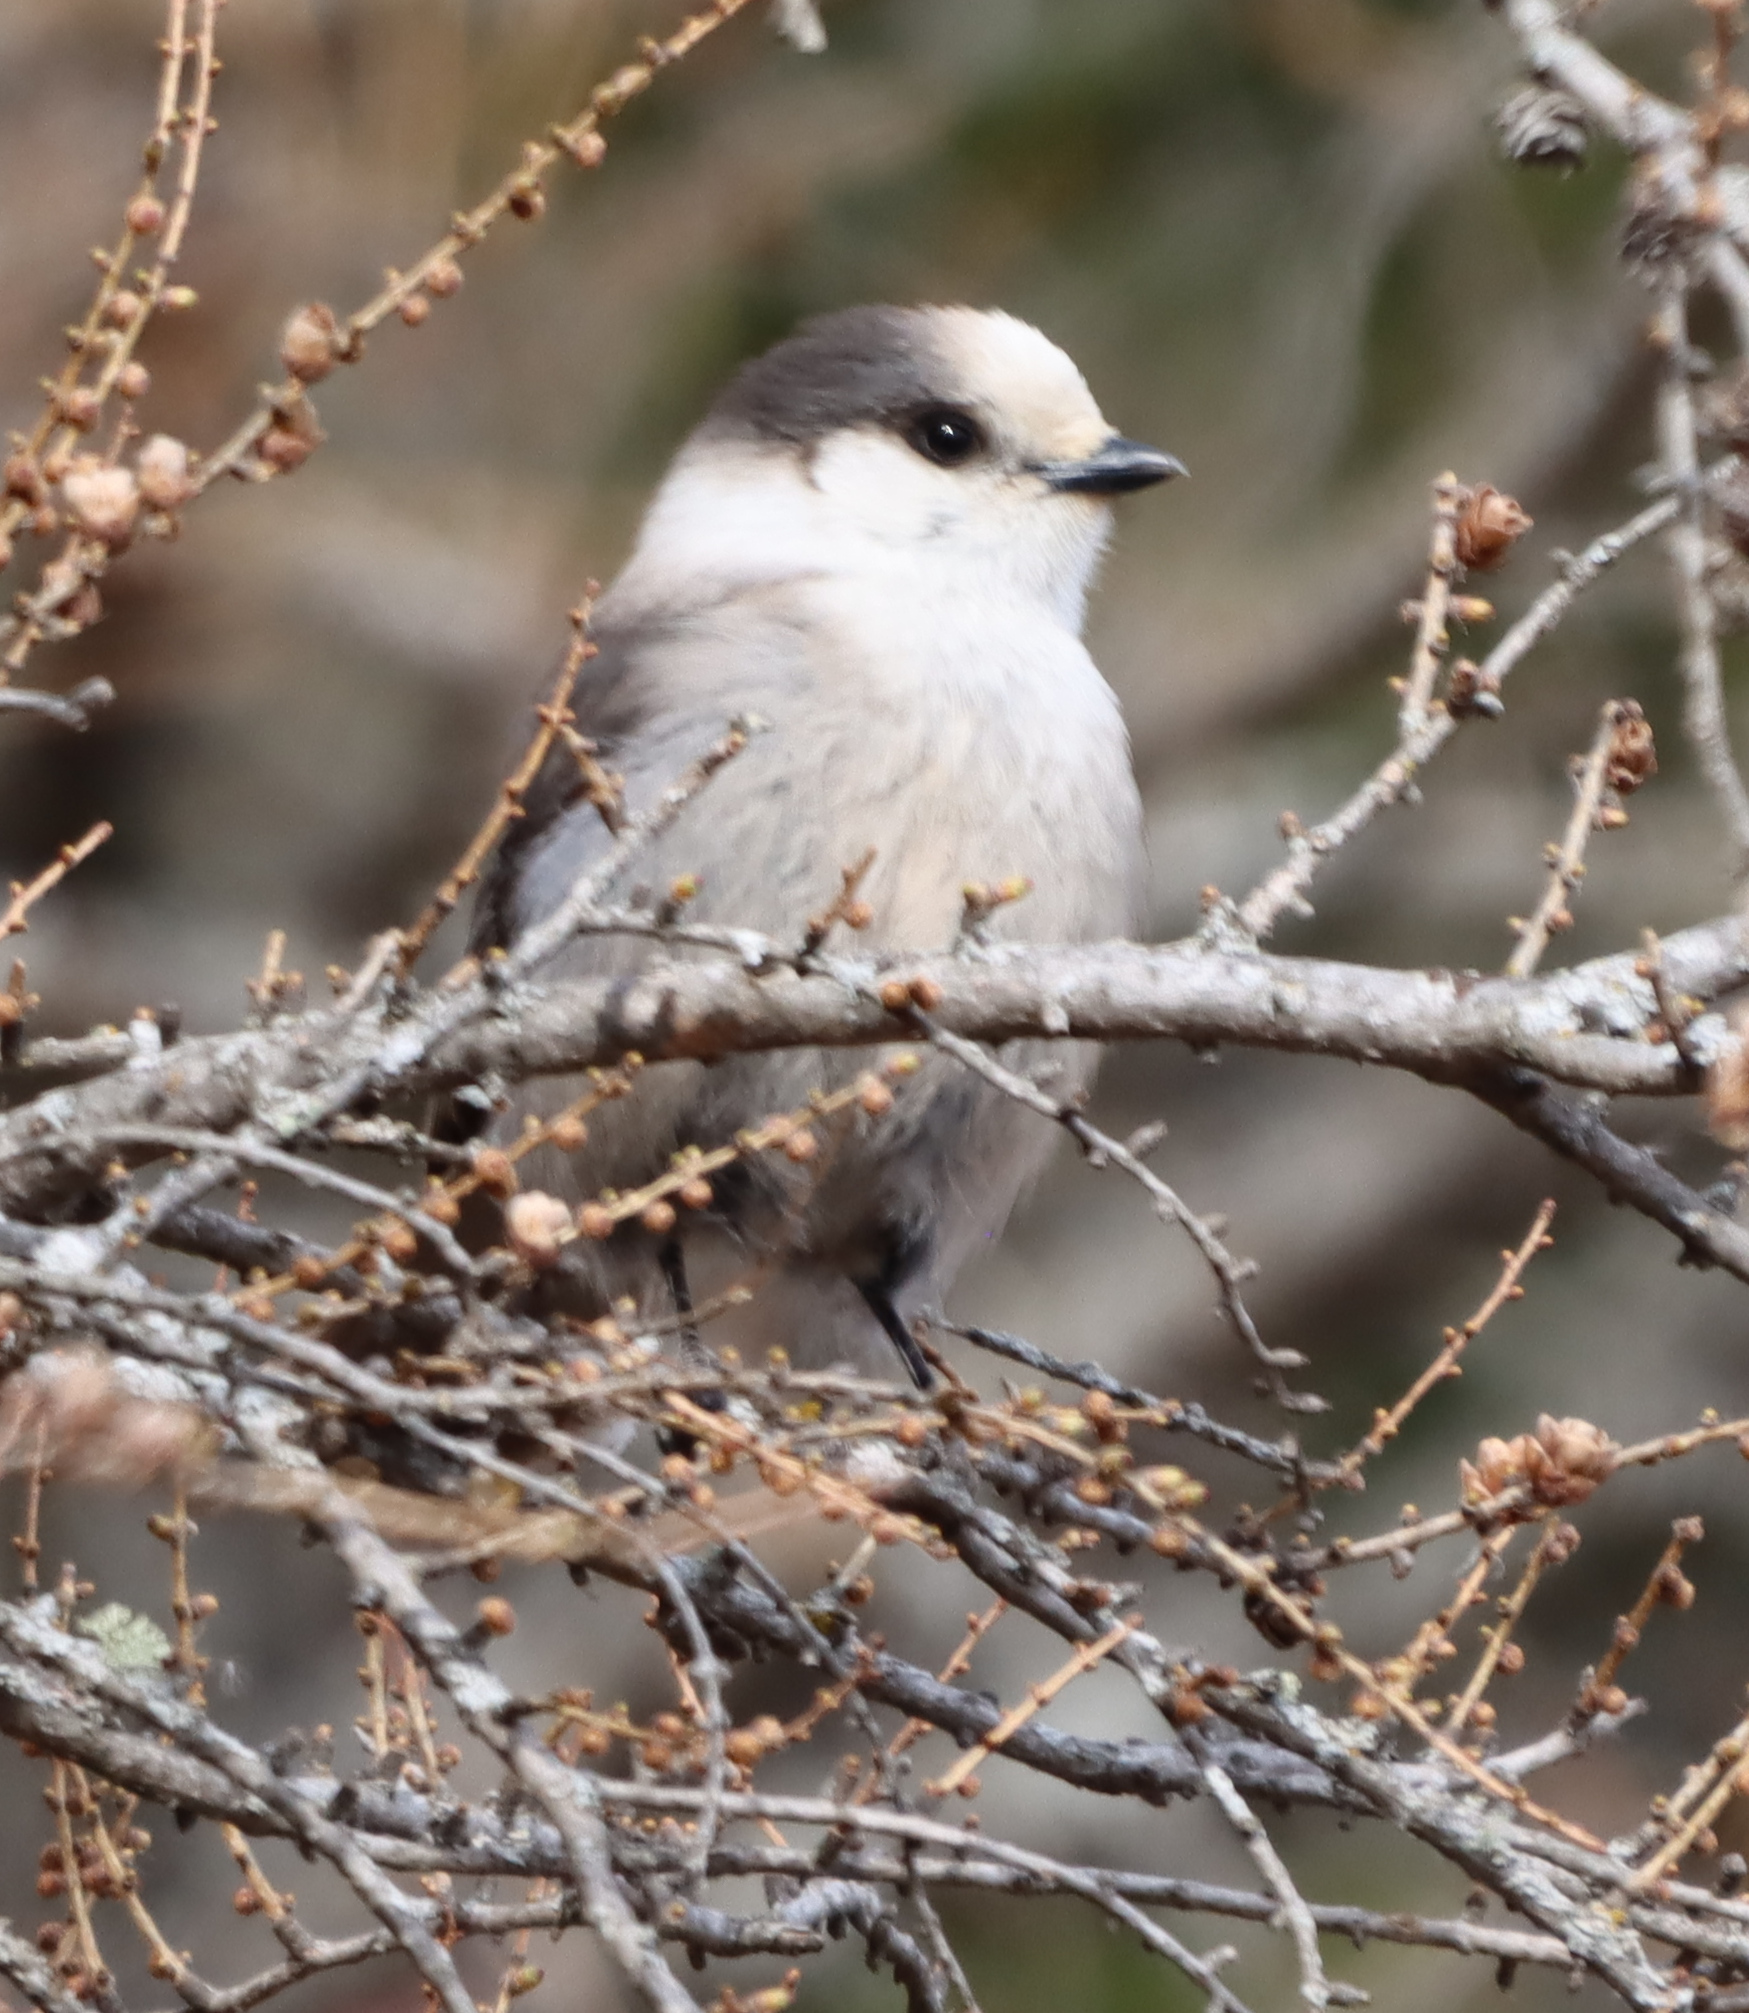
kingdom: Animalia
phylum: Chordata
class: Aves
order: Passeriformes
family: Corvidae
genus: Perisoreus
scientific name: Perisoreus canadensis
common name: Gray jay
